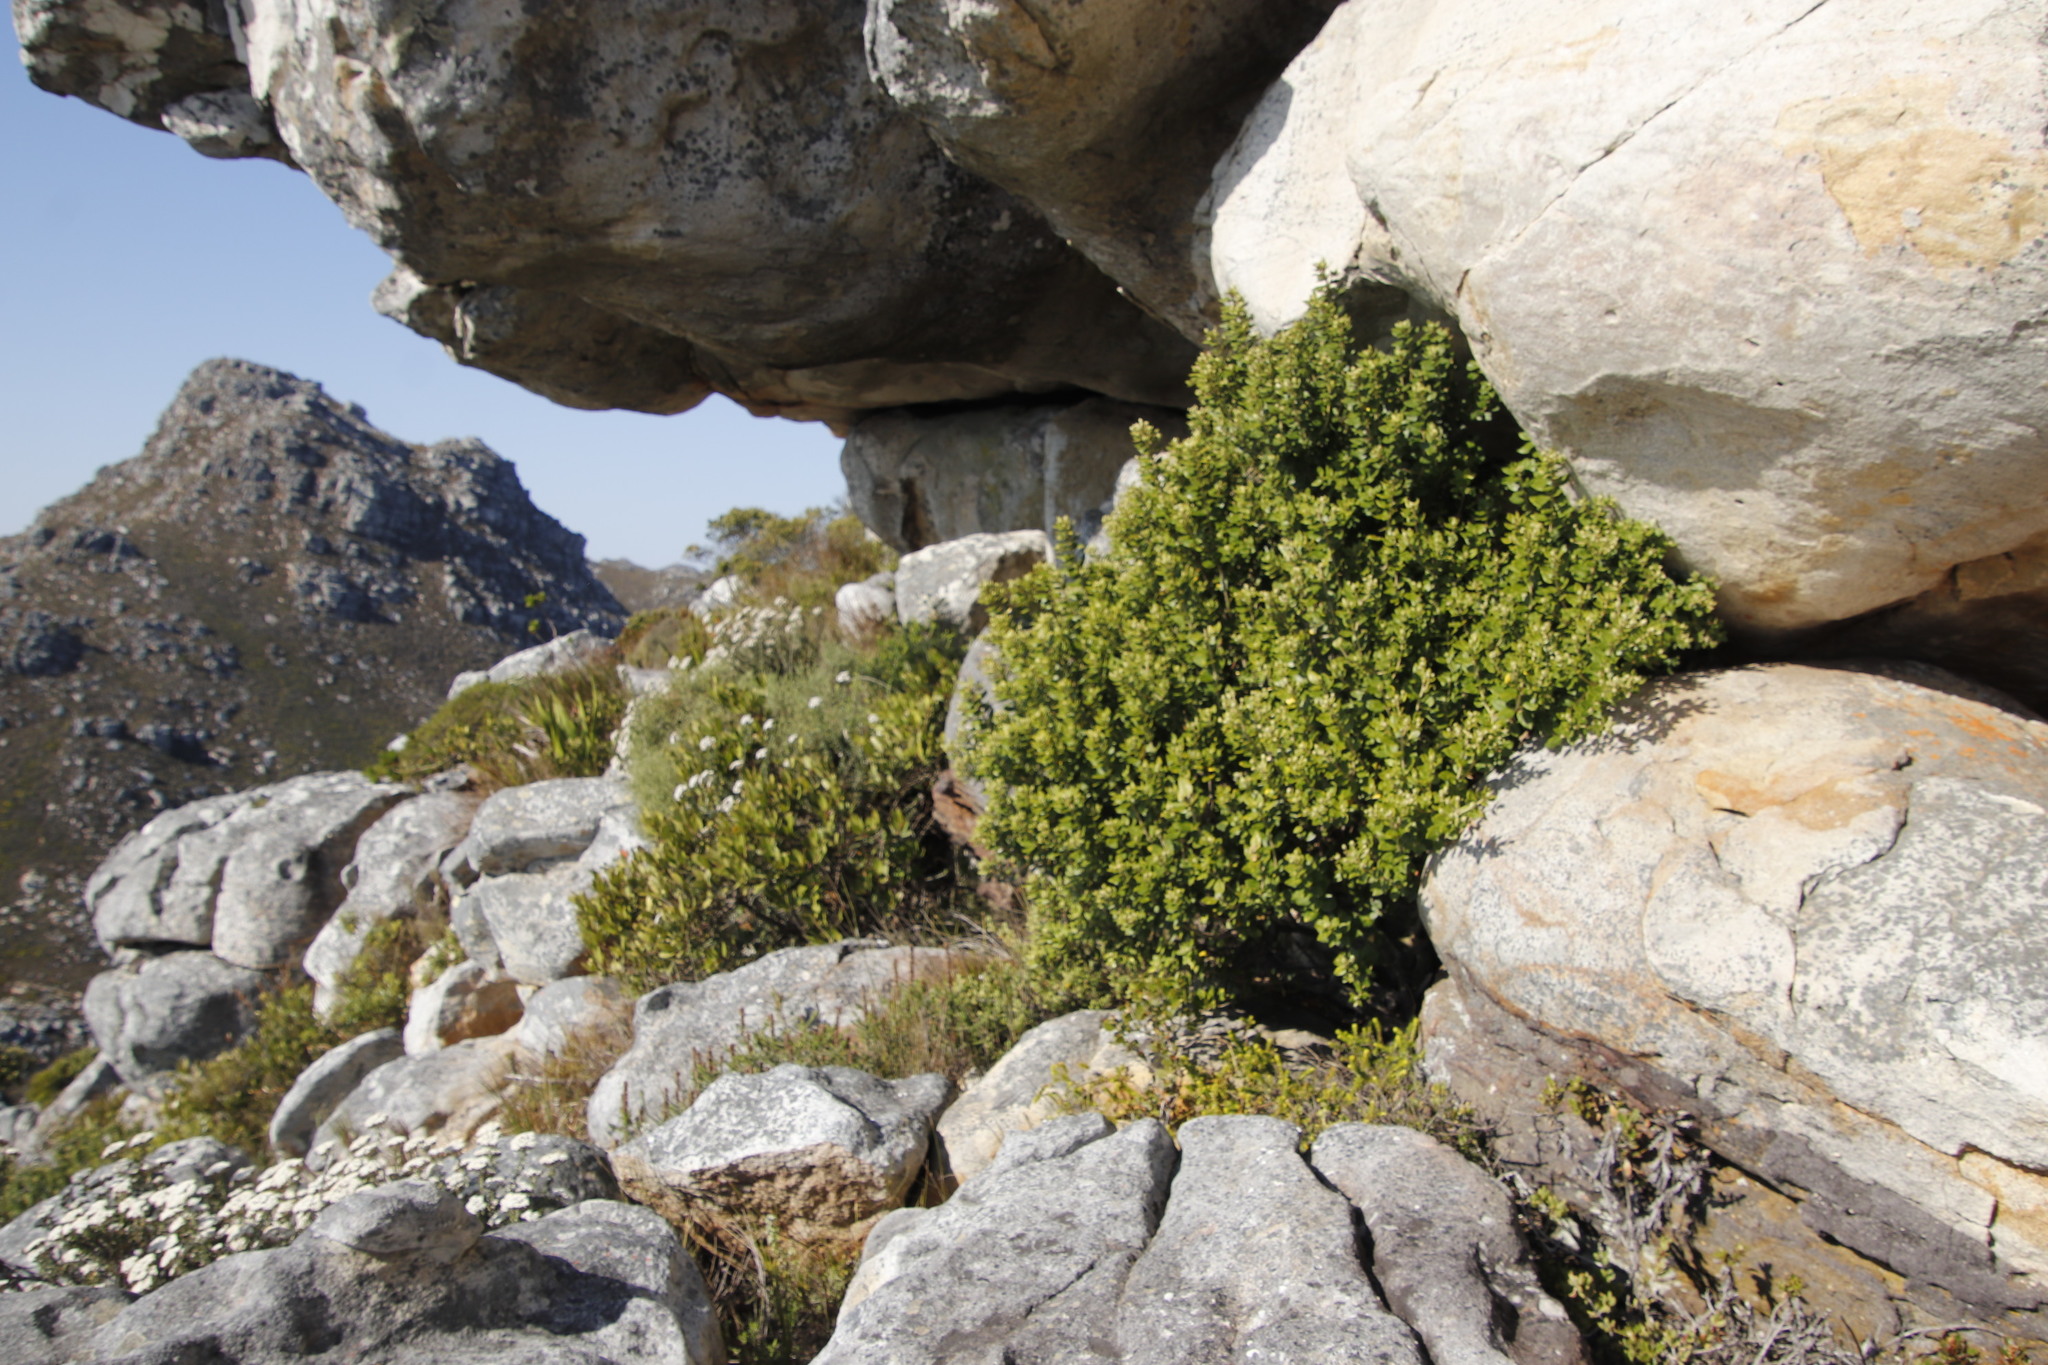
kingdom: Plantae
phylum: Tracheophyta
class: Magnoliopsida
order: Rosales
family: Rhamnaceae
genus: Phylica
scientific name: Phylica buxifolia
